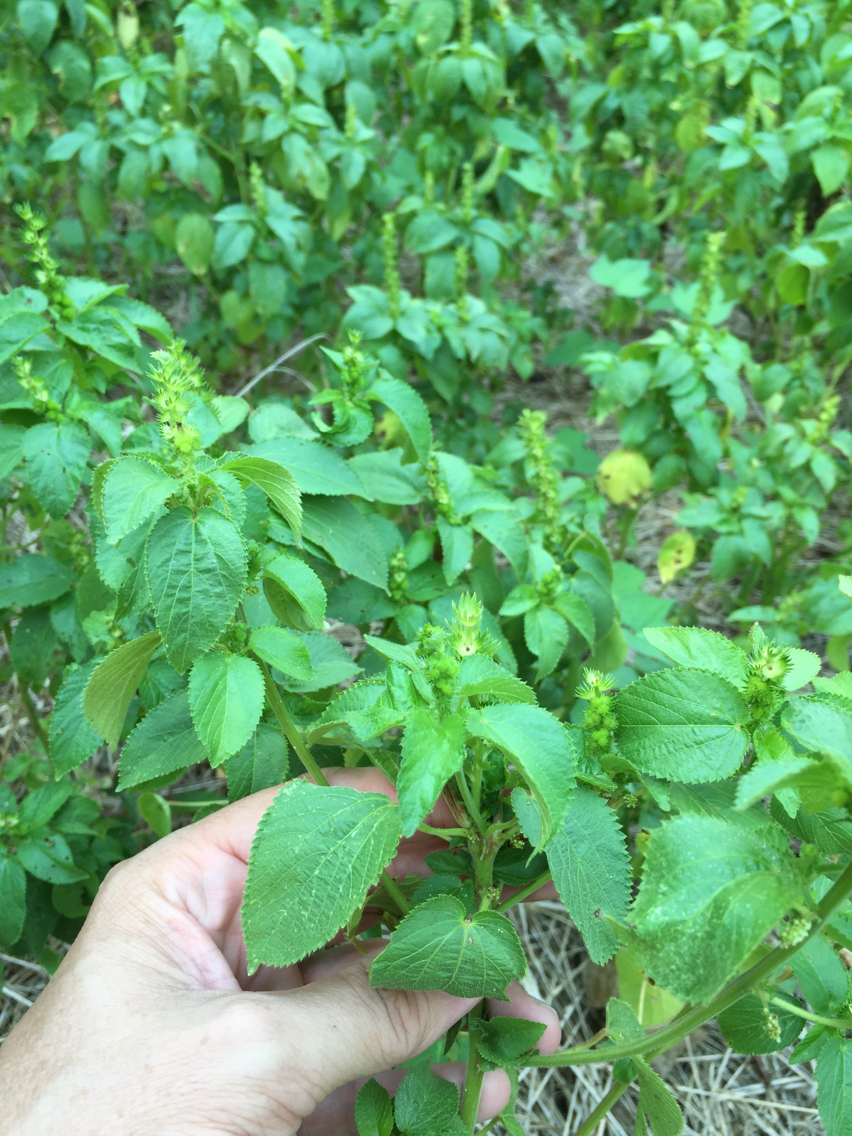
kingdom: Plantae
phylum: Tracheophyta
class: Magnoliopsida
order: Malpighiales
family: Euphorbiaceae
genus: Acalypha
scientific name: Acalypha ostryifolia
